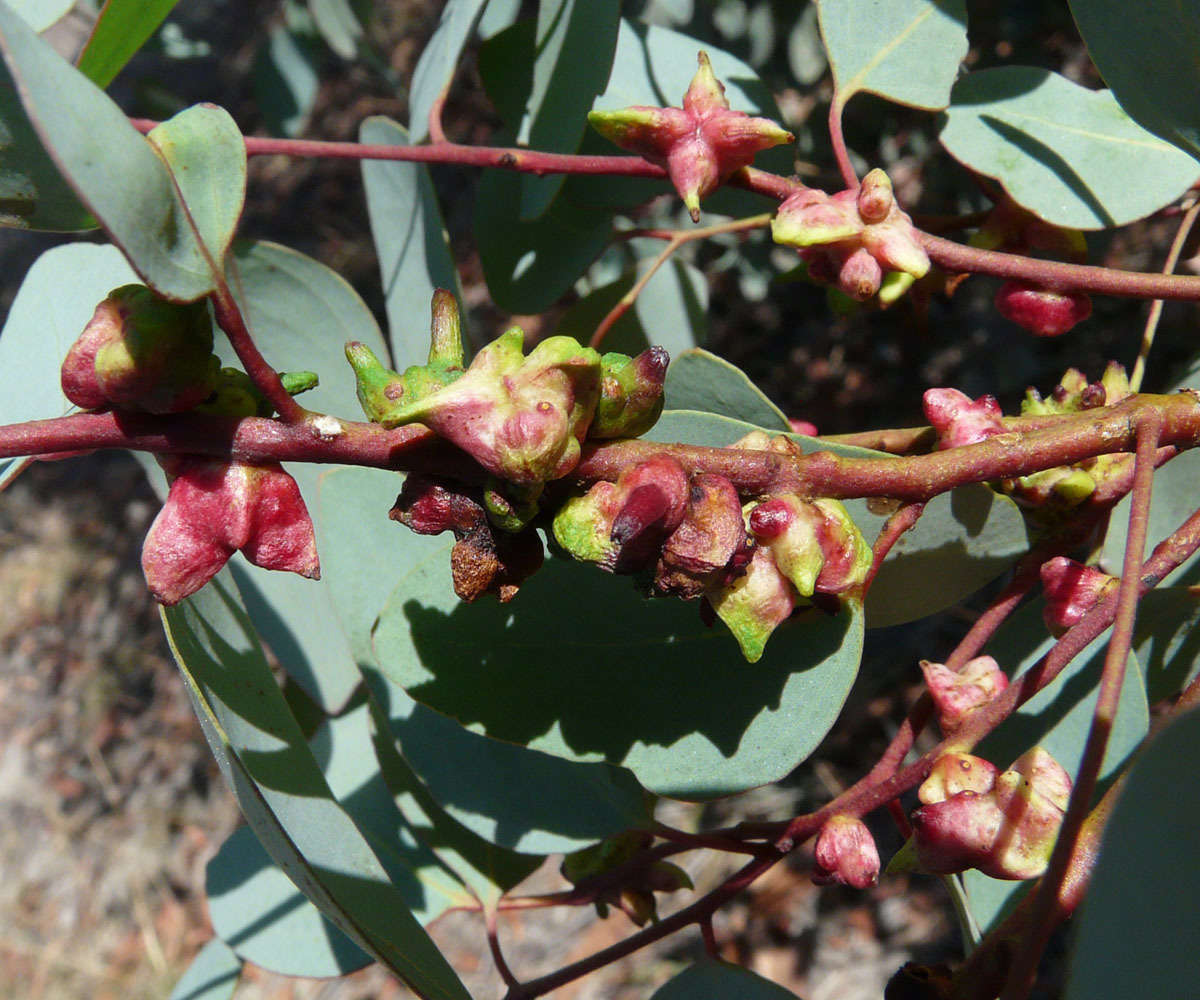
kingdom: Animalia
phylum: Arthropoda
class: Insecta
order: Hemiptera
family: Eriococcidae
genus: Apiomorpha
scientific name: Apiomorpha munita
